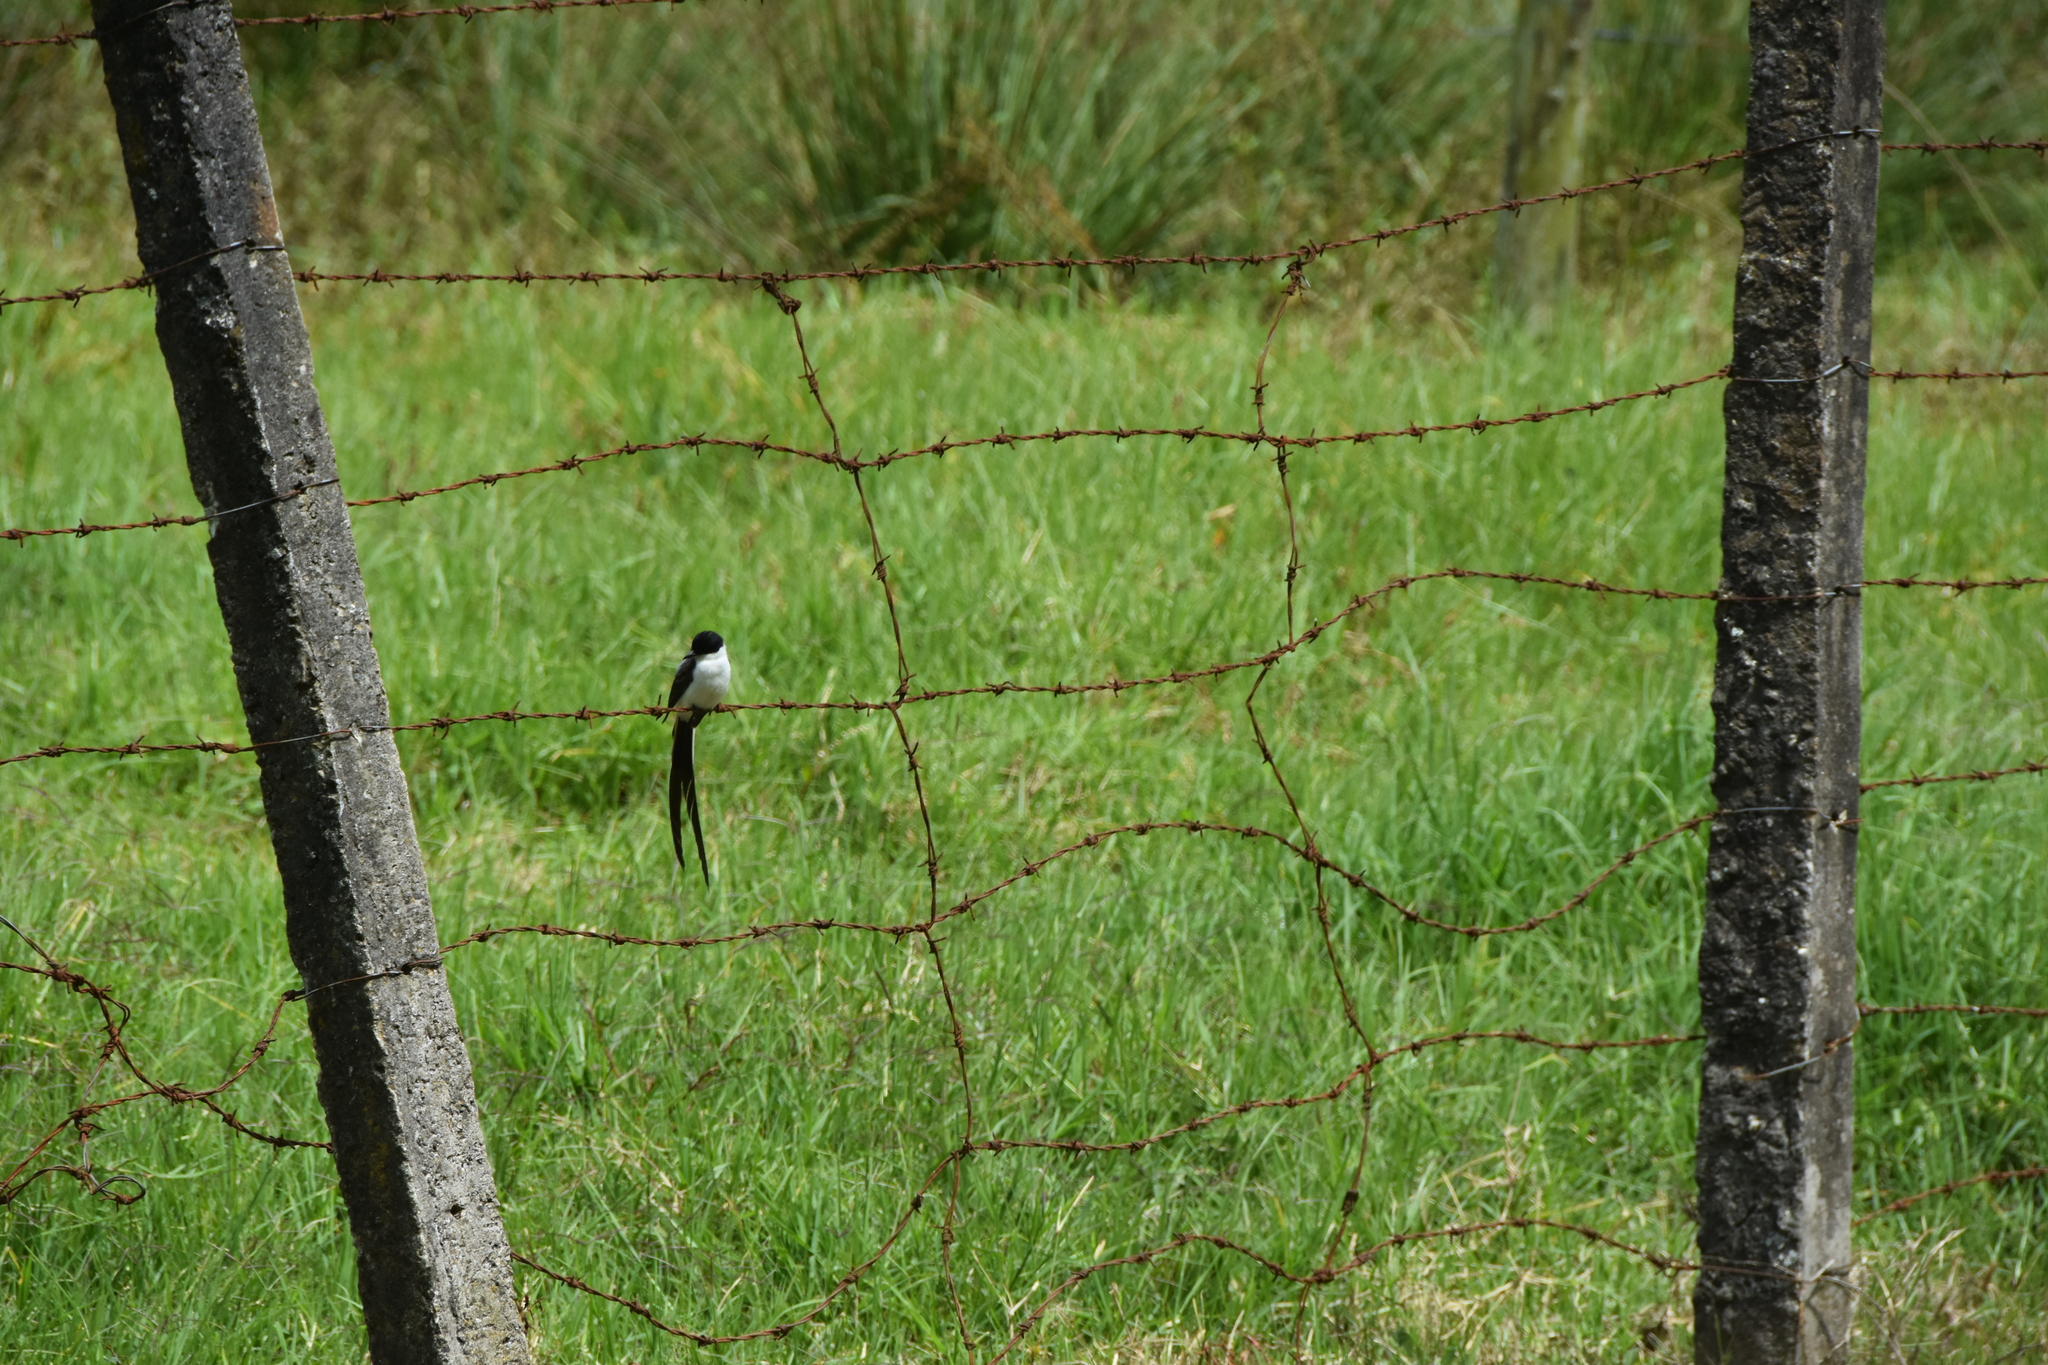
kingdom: Animalia
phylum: Chordata
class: Aves
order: Passeriformes
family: Tyrannidae
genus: Tyrannus
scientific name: Tyrannus savana
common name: Fork-tailed flycatcher
